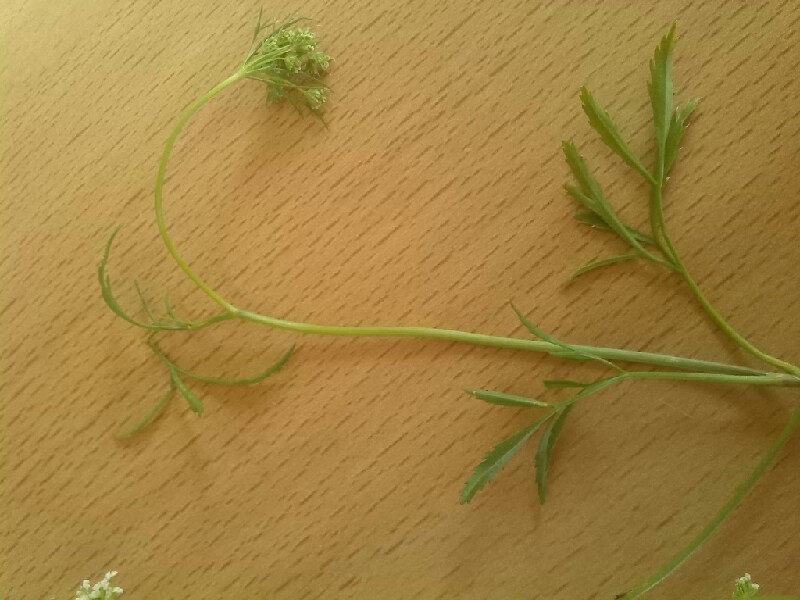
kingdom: Plantae
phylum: Tracheophyta
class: Magnoliopsida
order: Apiales
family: Apiaceae
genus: Ammi
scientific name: Ammi majus
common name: Bullwort
